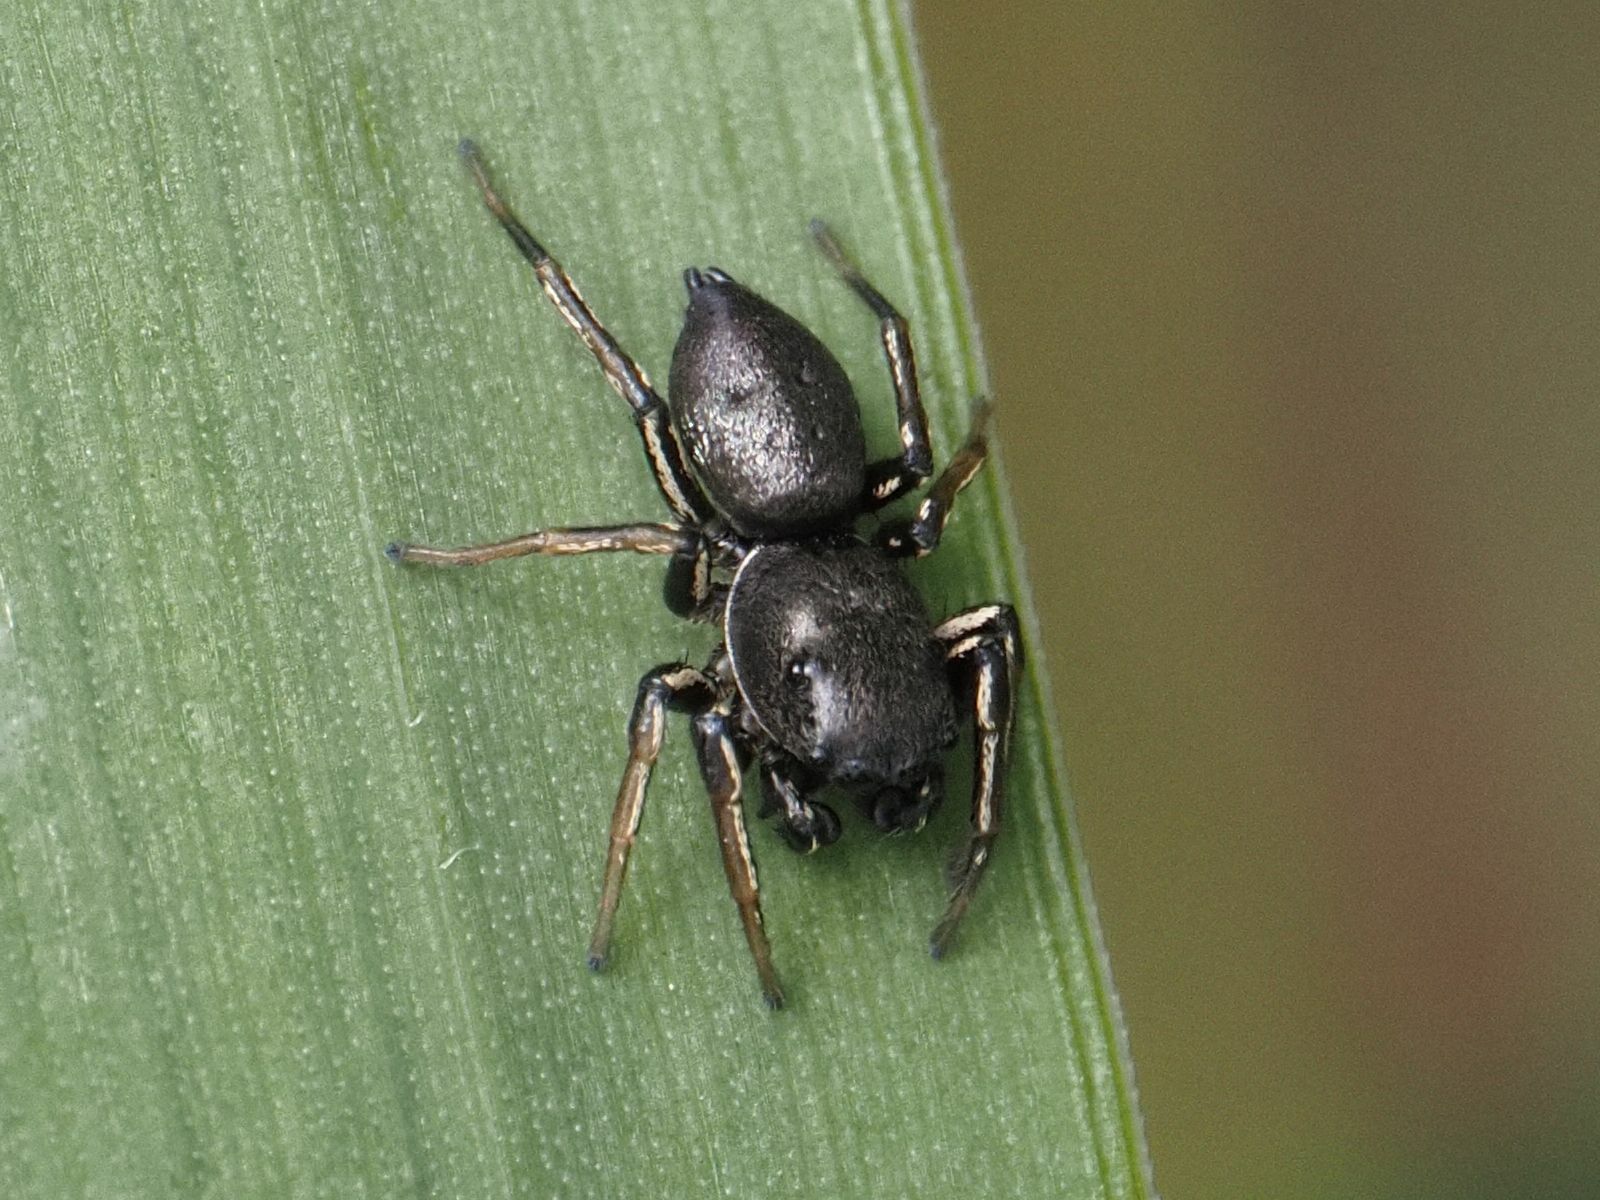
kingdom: Animalia
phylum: Arthropoda
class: Arachnida
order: Araneae
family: Salticidae
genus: Heliophanus
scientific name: Heliophanus cupreus
